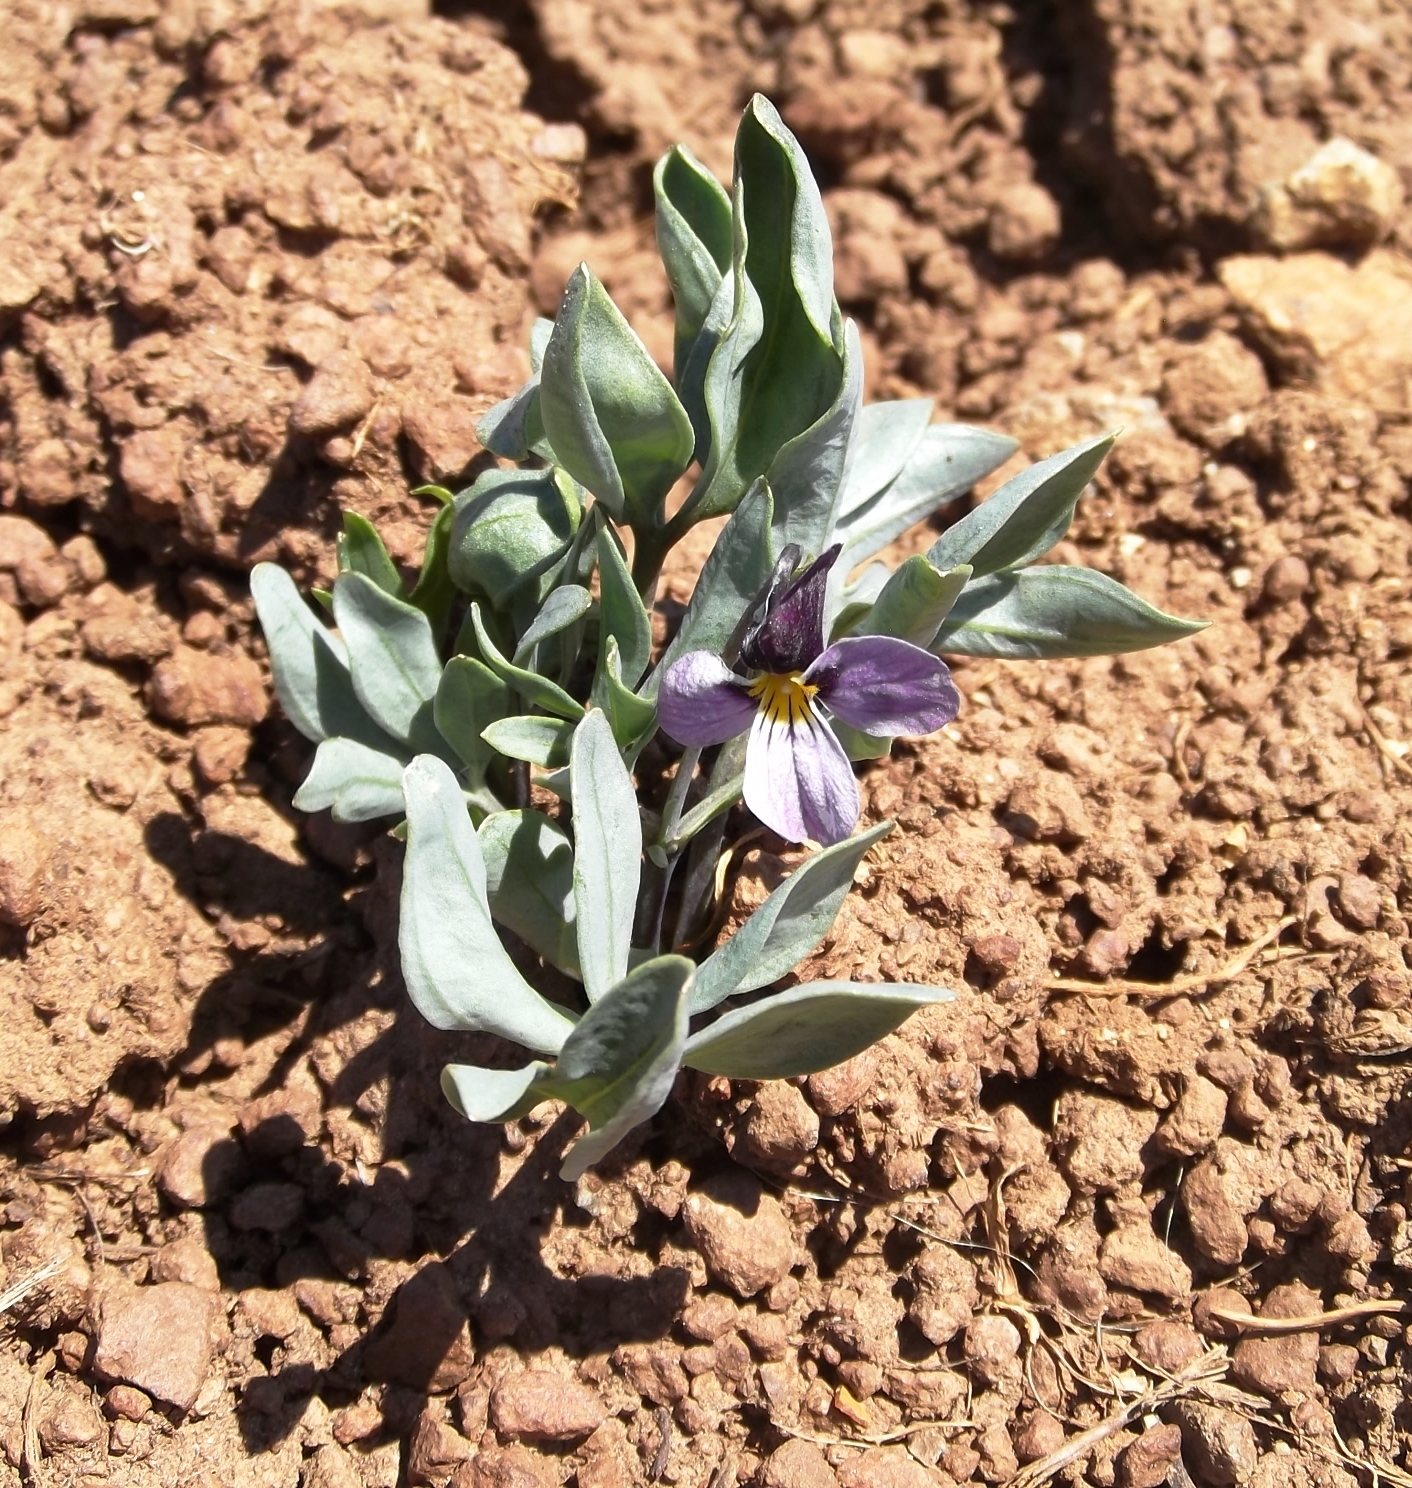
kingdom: Plantae
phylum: Tracheophyta
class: Magnoliopsida
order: Malpighiales
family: Violaceae
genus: Viola
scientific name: Viola trinervata
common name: Sagebrush violet
